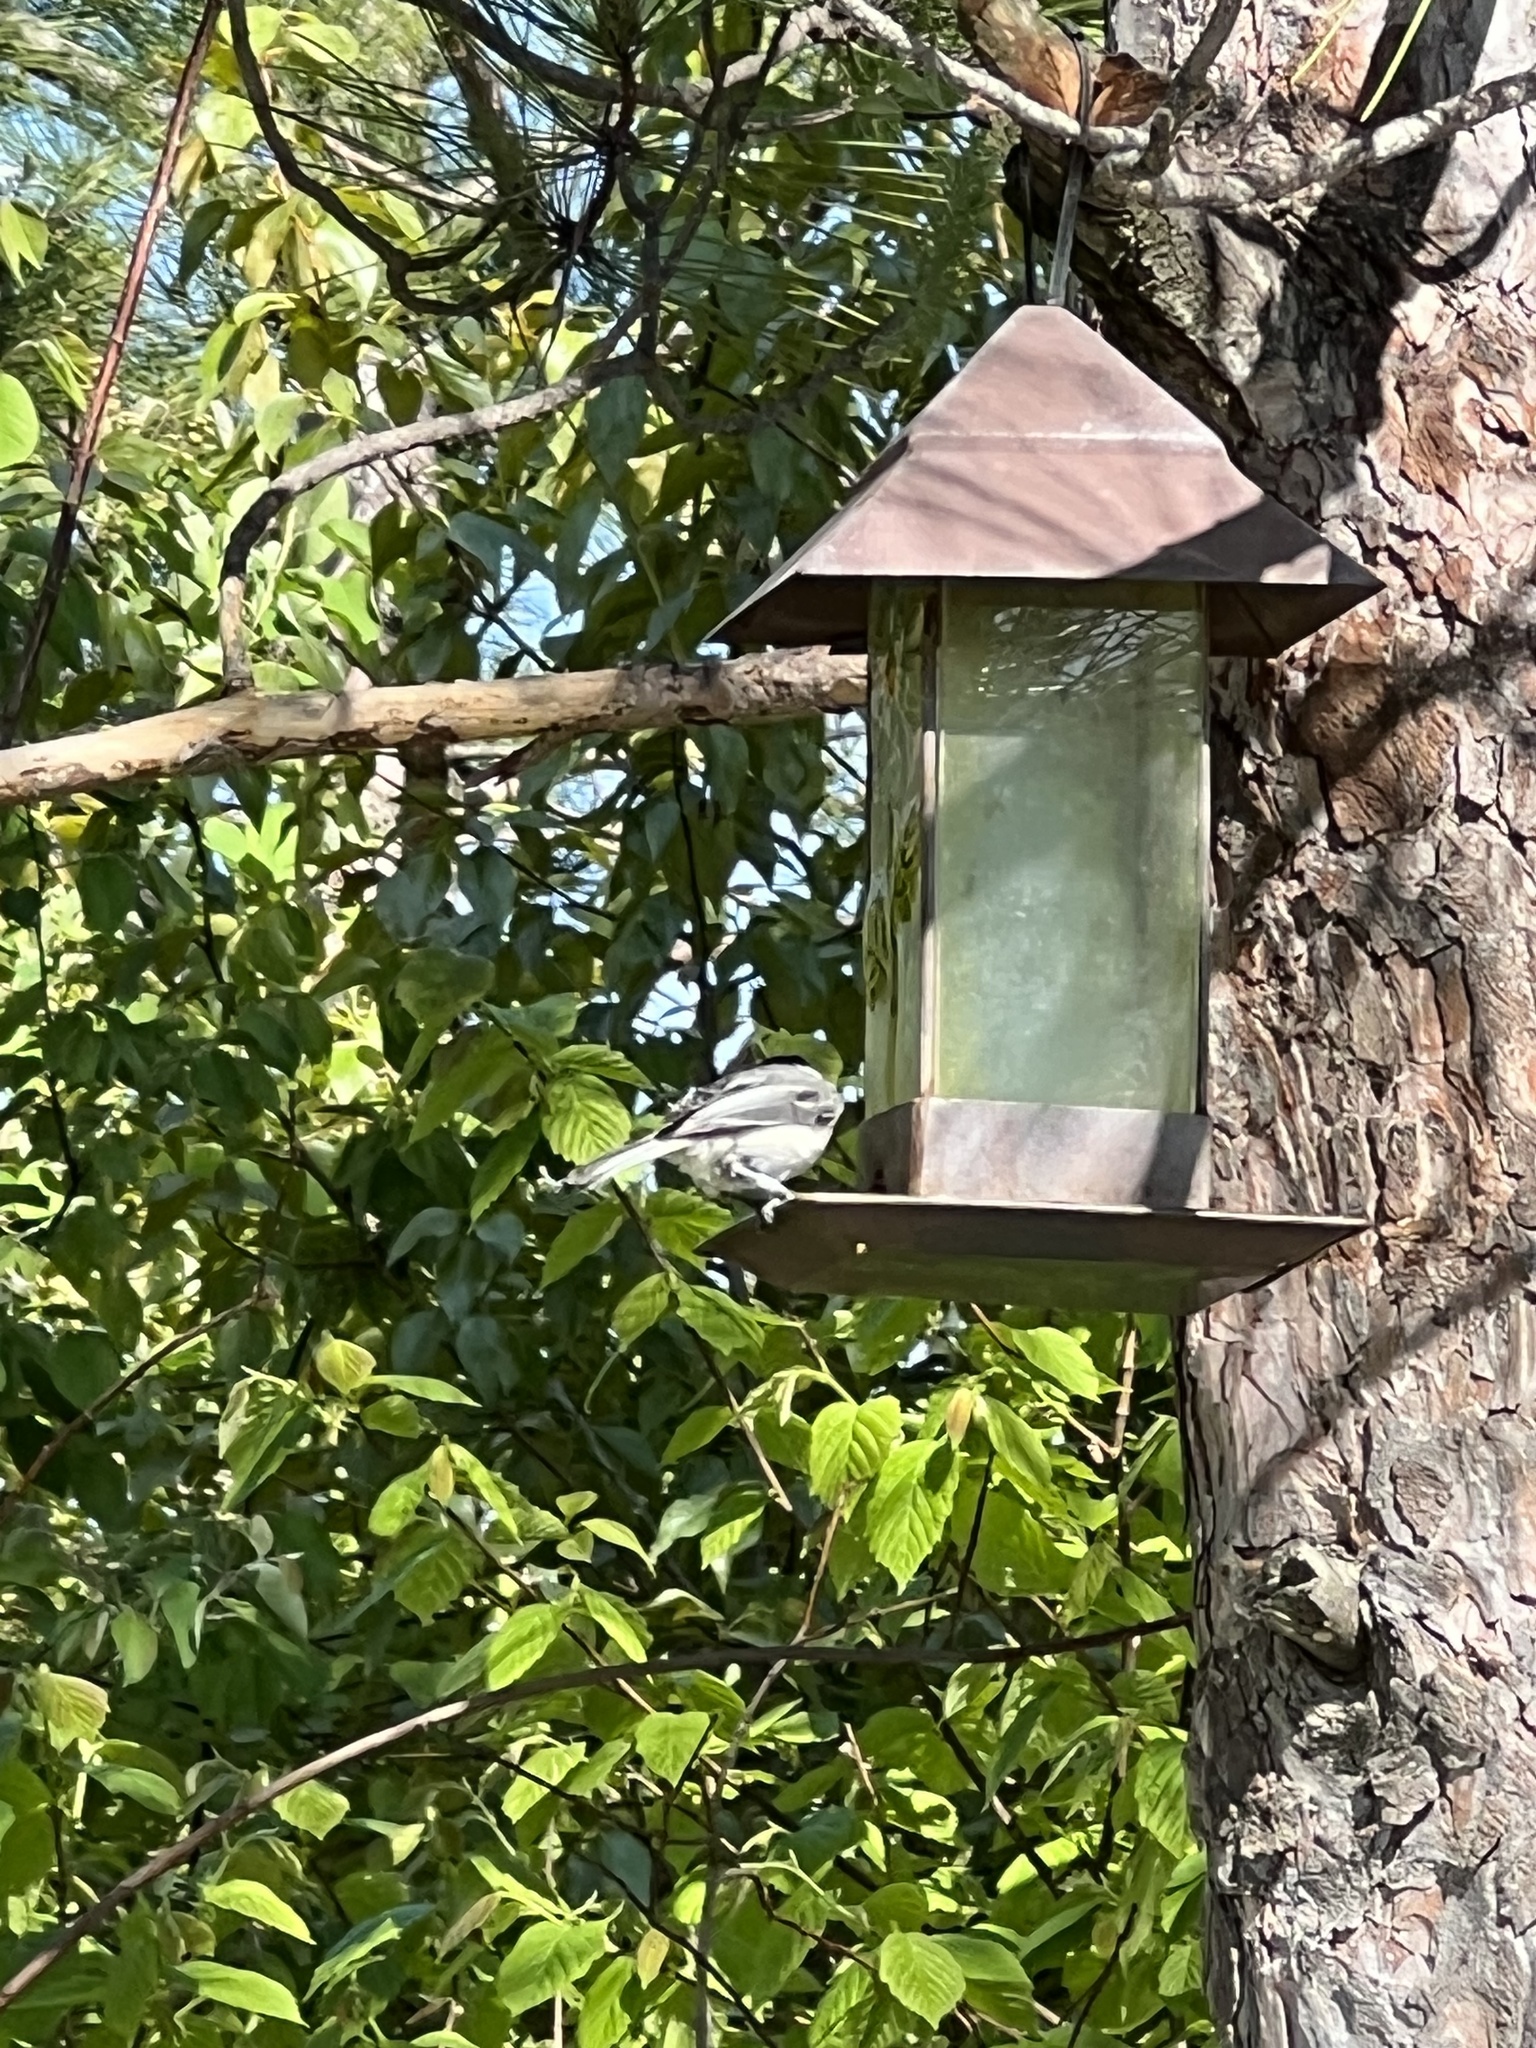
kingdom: Animalia
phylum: Chordata
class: Aves
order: Passeriformes
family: Paridae
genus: Poecile
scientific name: Poecile atricapillus
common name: Black-capped chickadee
